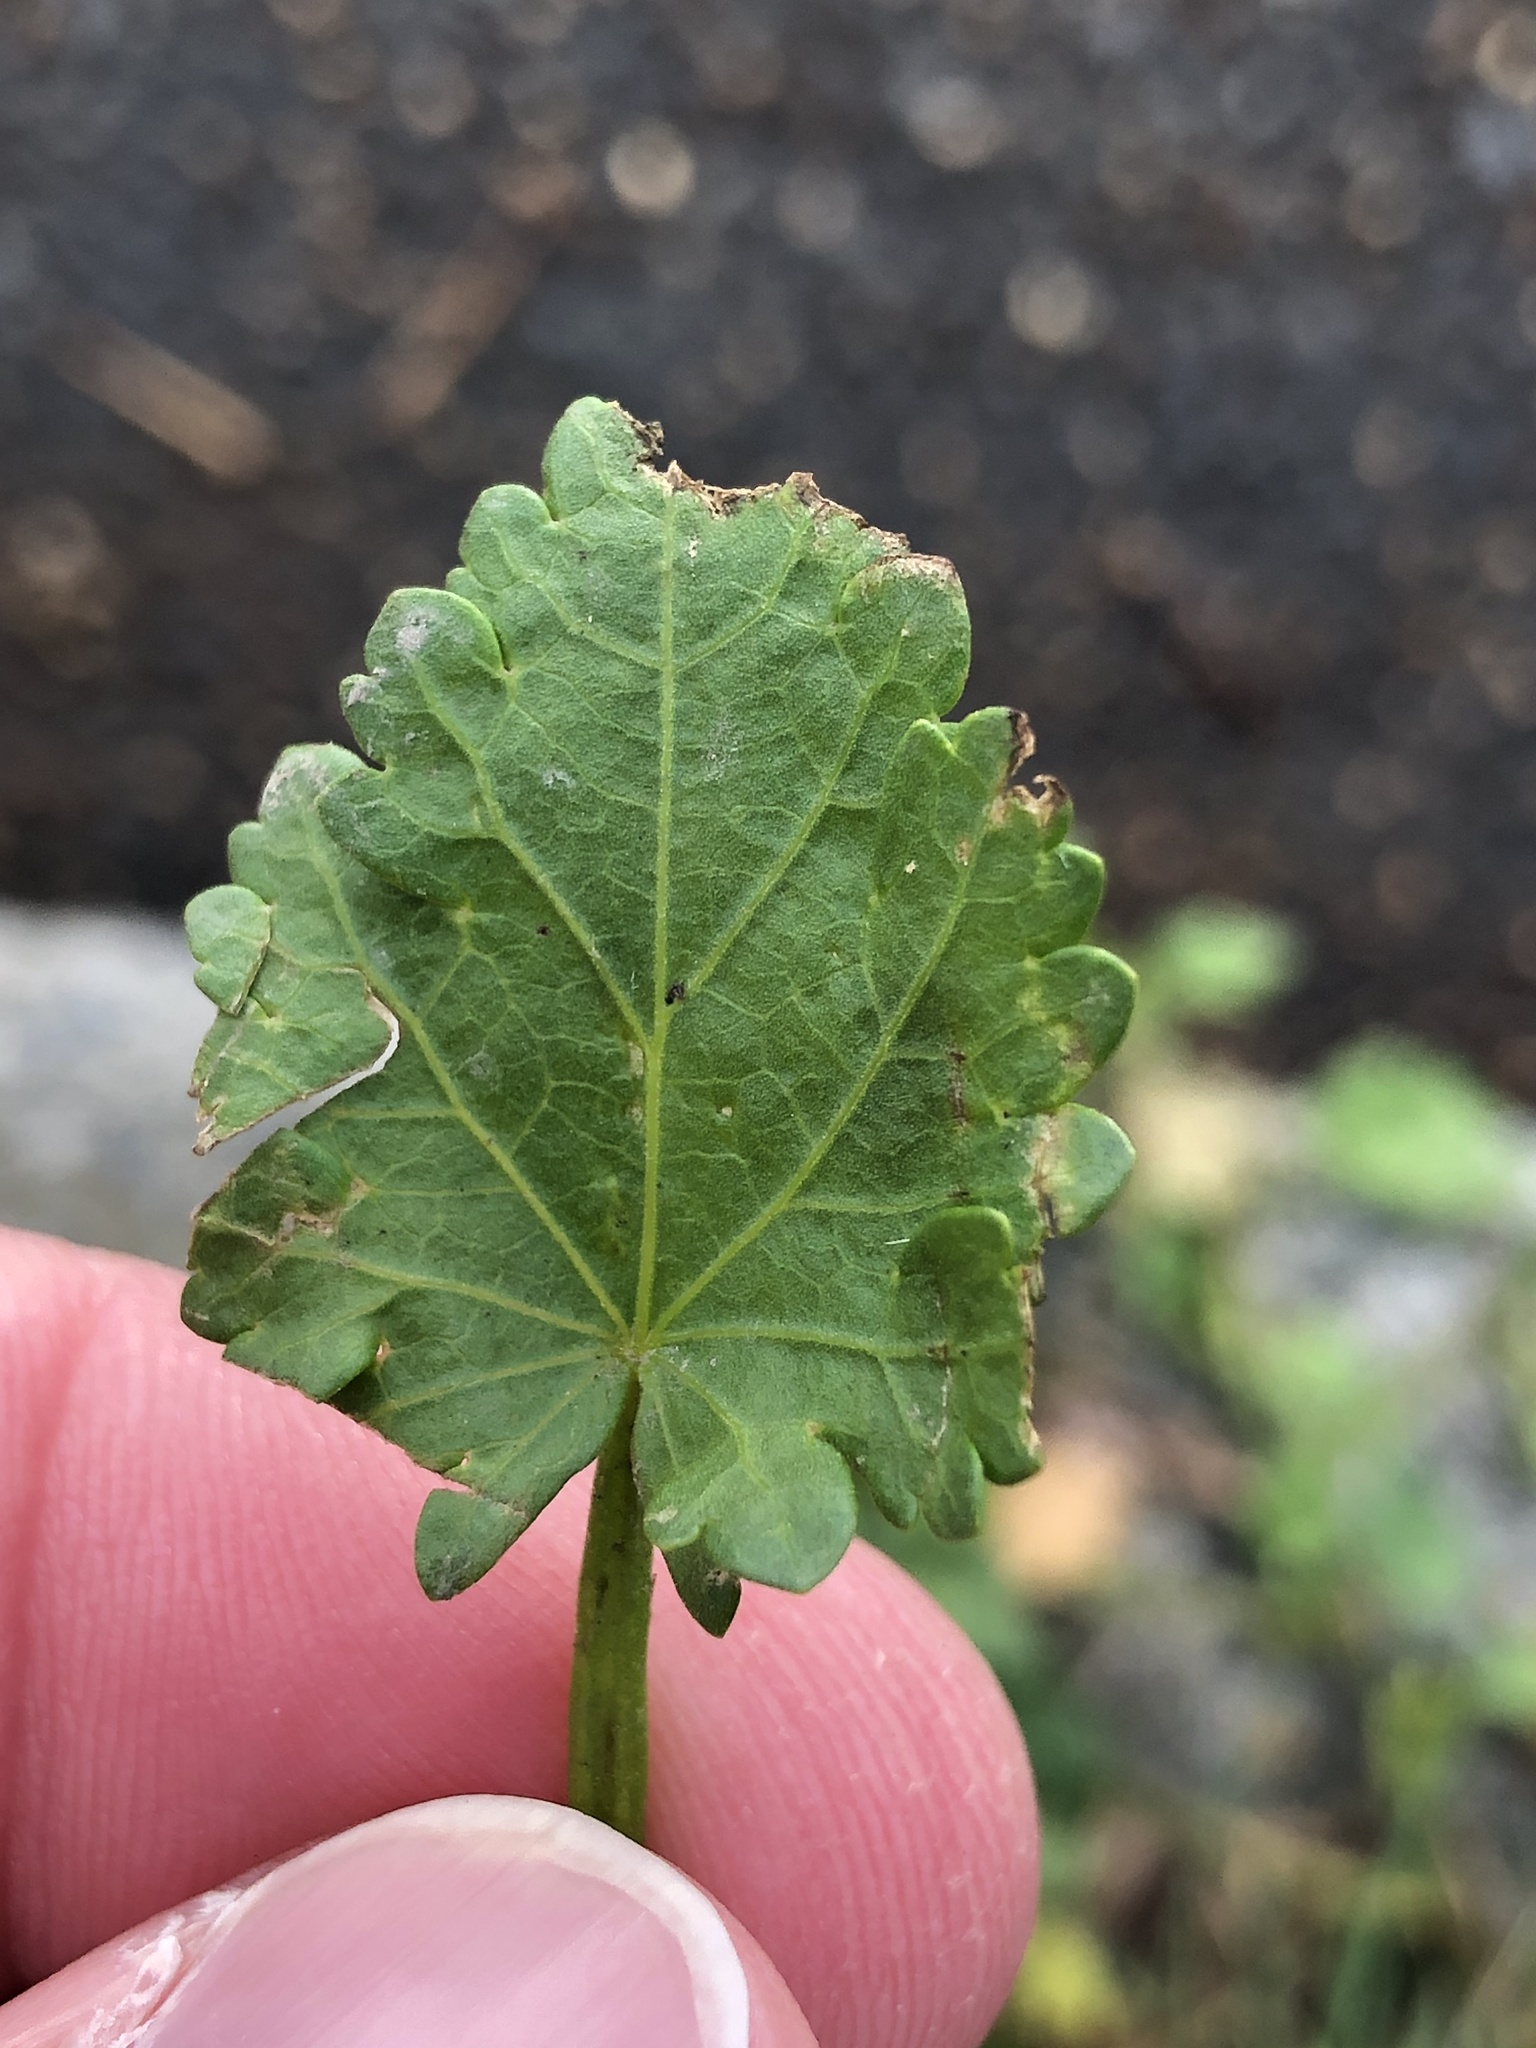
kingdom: Plantae
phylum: Tracheophyta
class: Magnoliopsida
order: Malvales
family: Malvaceae
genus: Modiola
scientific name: Modiola caroliniana
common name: Carolina bristlemallow
